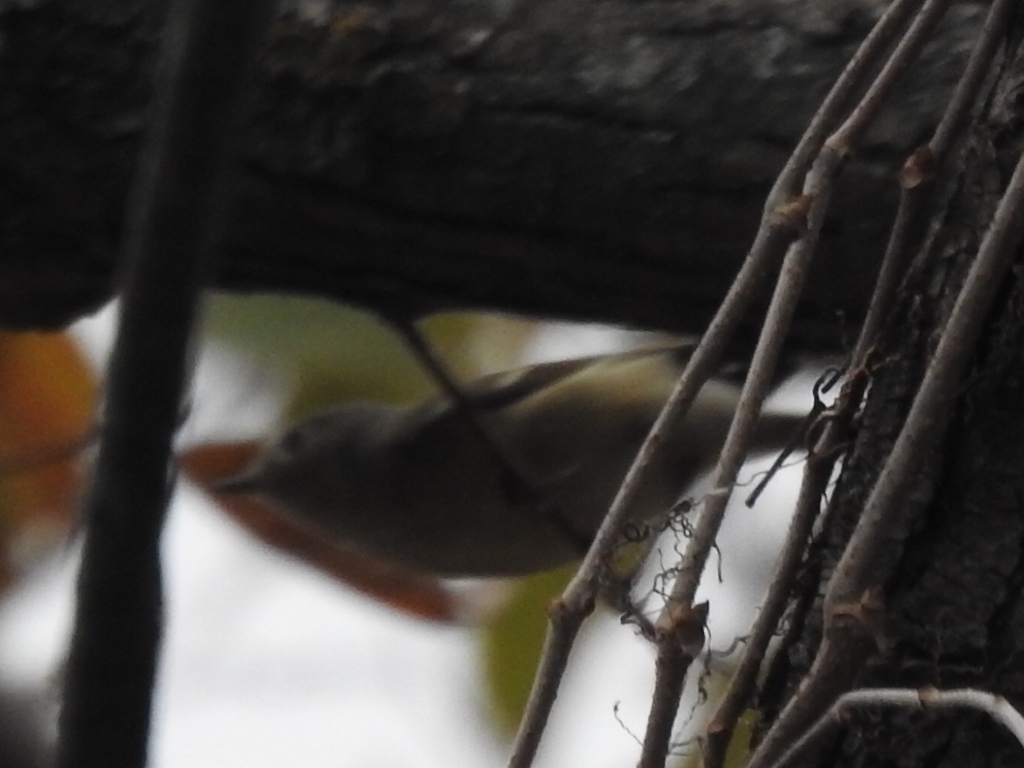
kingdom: Animalia
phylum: Chordata
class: Aves
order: Passeriformes
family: Regulidae
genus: Regulus
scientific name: Regulus calendula
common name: Ruby-crowned kinglet
